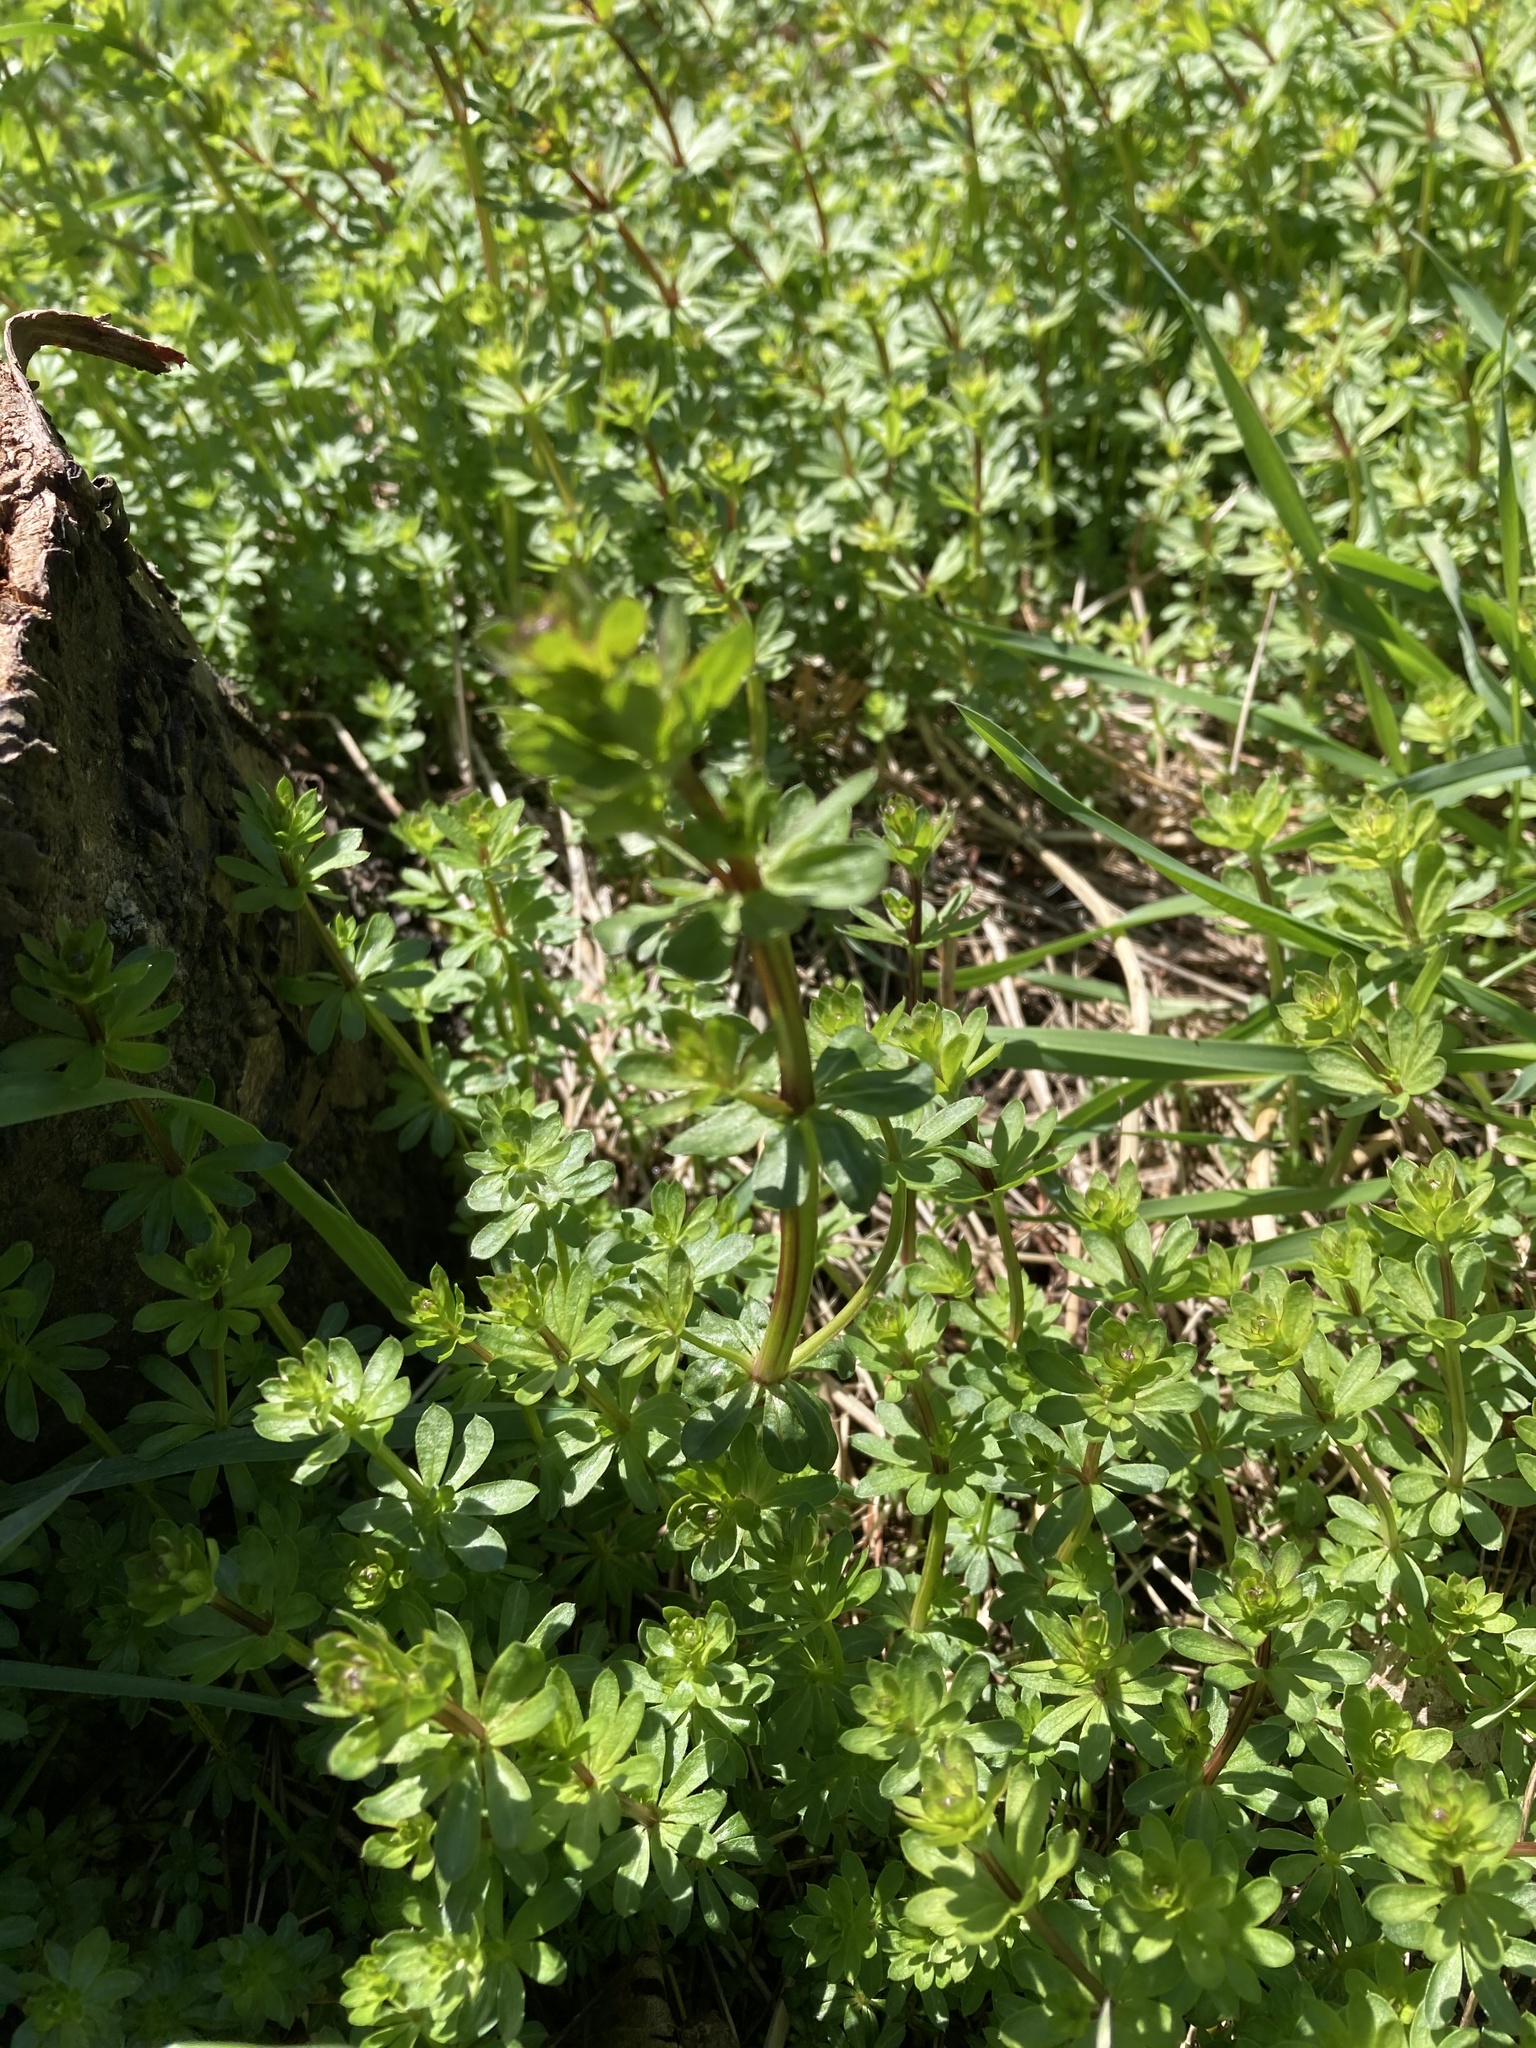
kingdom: Plantae
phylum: Tracheophyta
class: Magnoliopsida
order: Gentianales
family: Rubiaceae
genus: Galium
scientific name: Galium mollugo
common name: Hedge bedstraw
